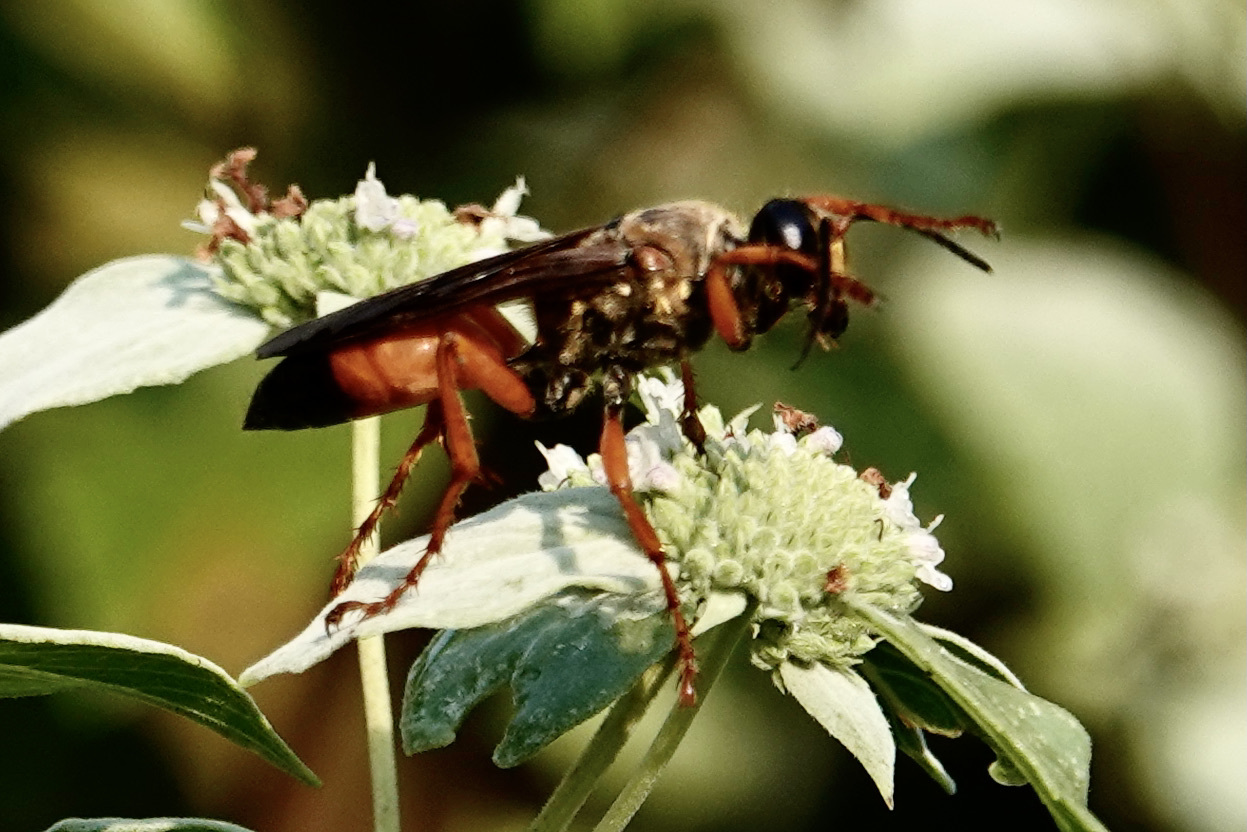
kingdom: Animalia
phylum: Arthropoda
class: Insecta
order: Hymenoptera
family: Sphecidae
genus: Sphex
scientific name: Sphex ichneumoneus
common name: Great golden digger wasp
